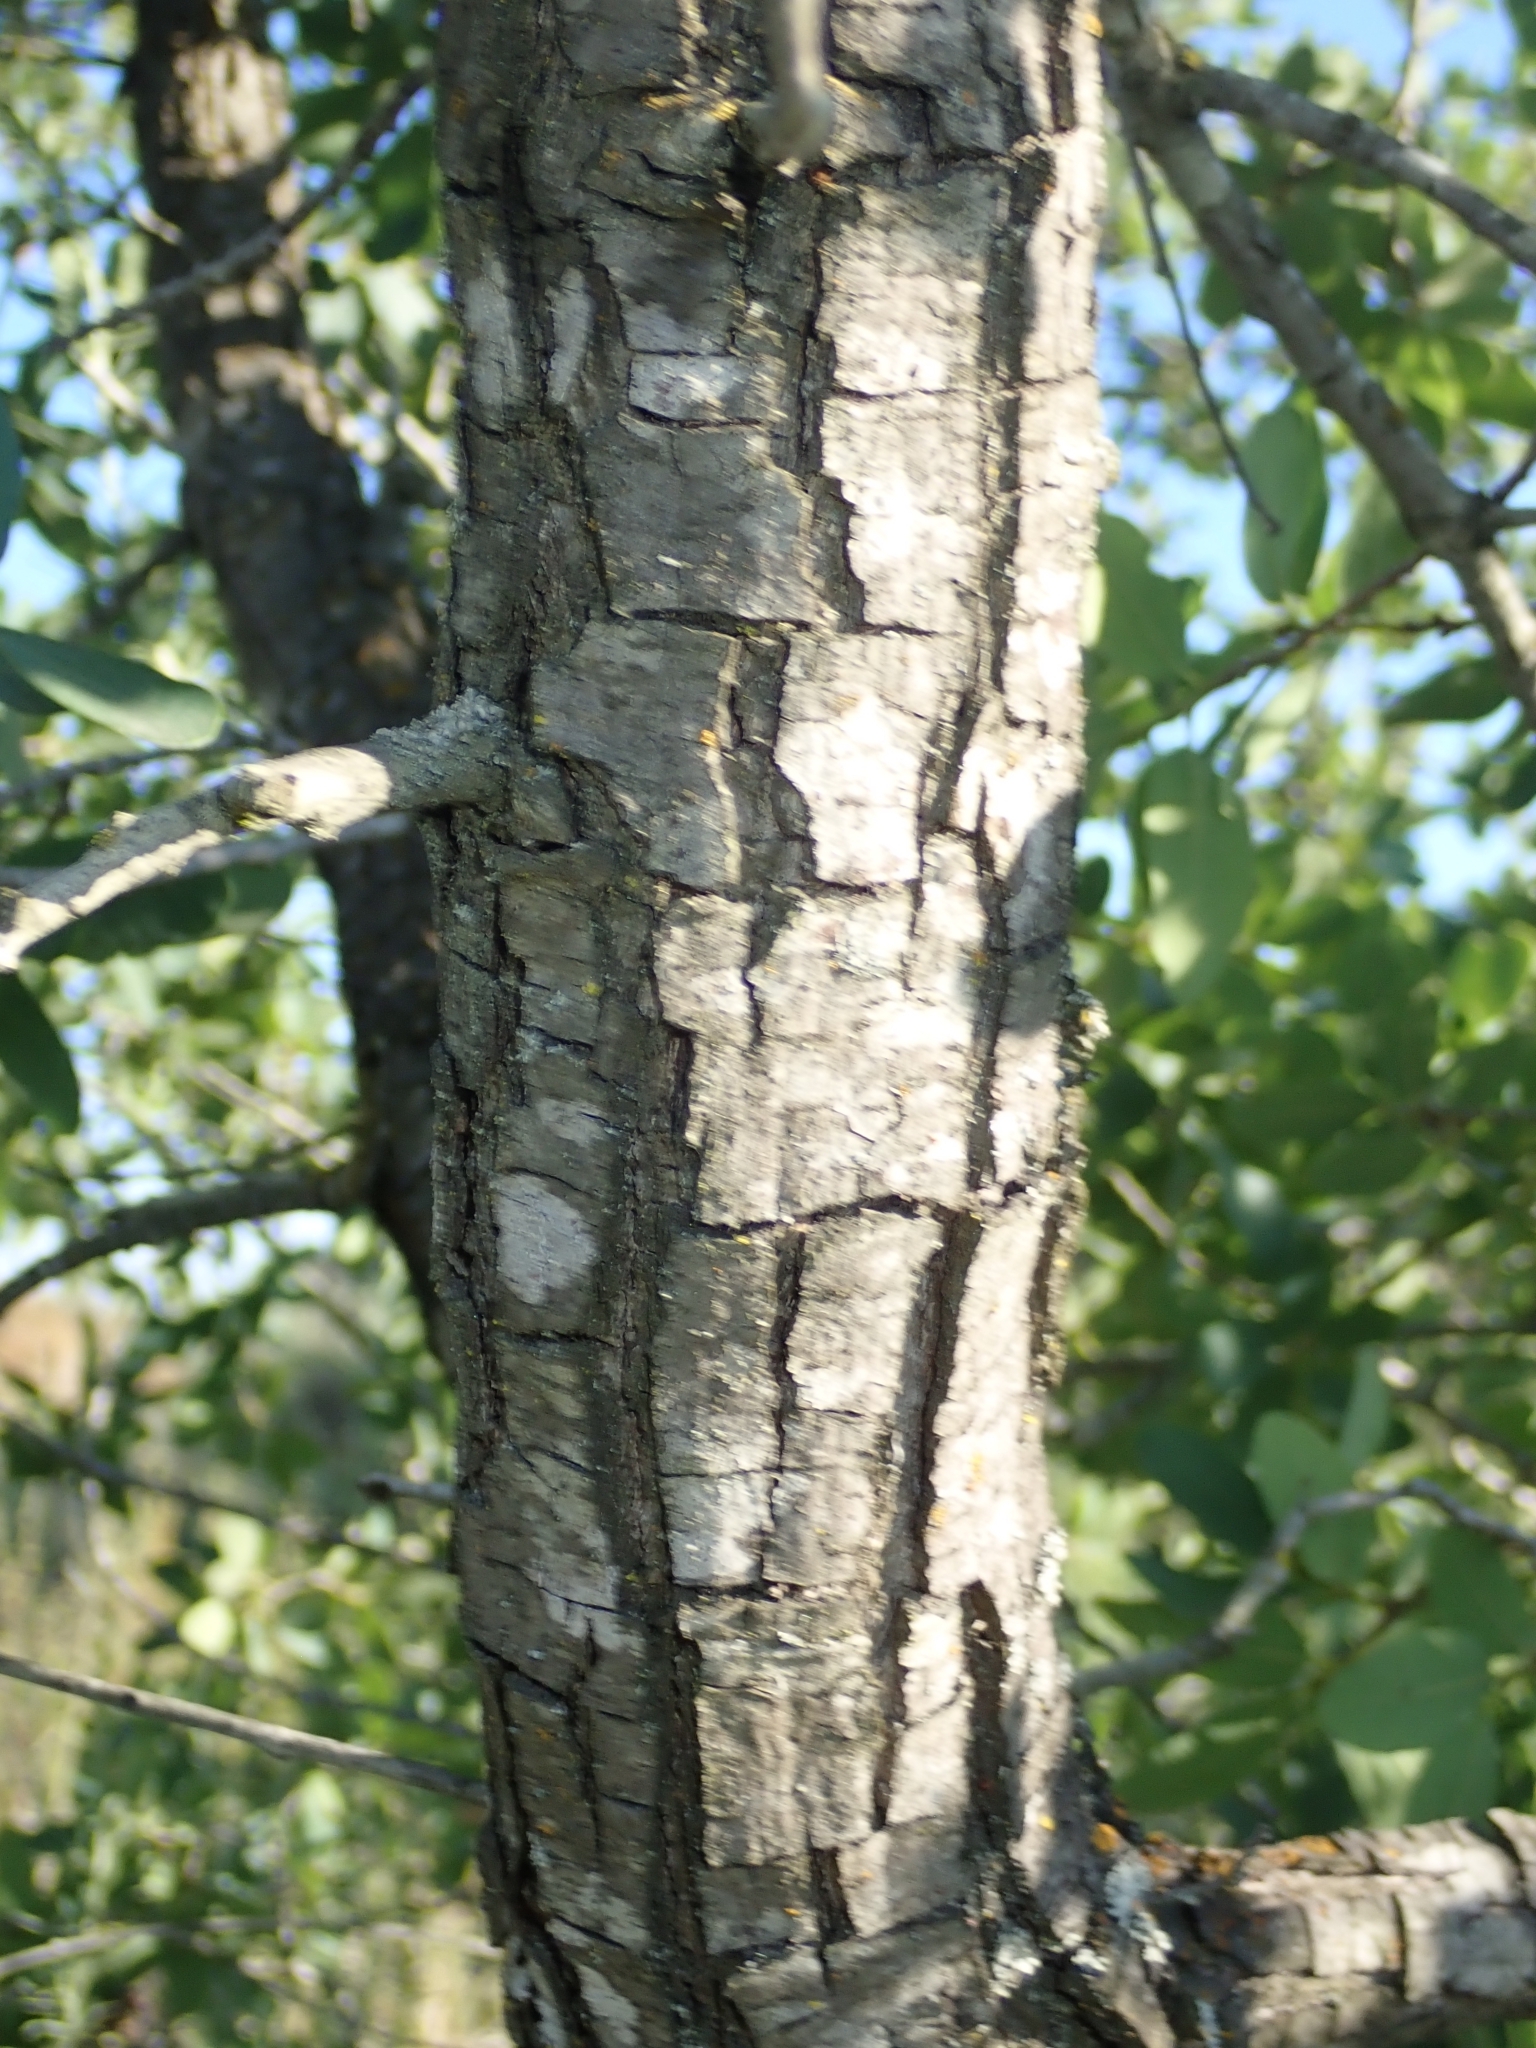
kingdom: Plantae
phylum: Tracheophyta
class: Magnoliopsida
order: Fagales
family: Fagaceae
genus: Quercus
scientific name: Quercus engelmannii
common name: Engelmann oak
